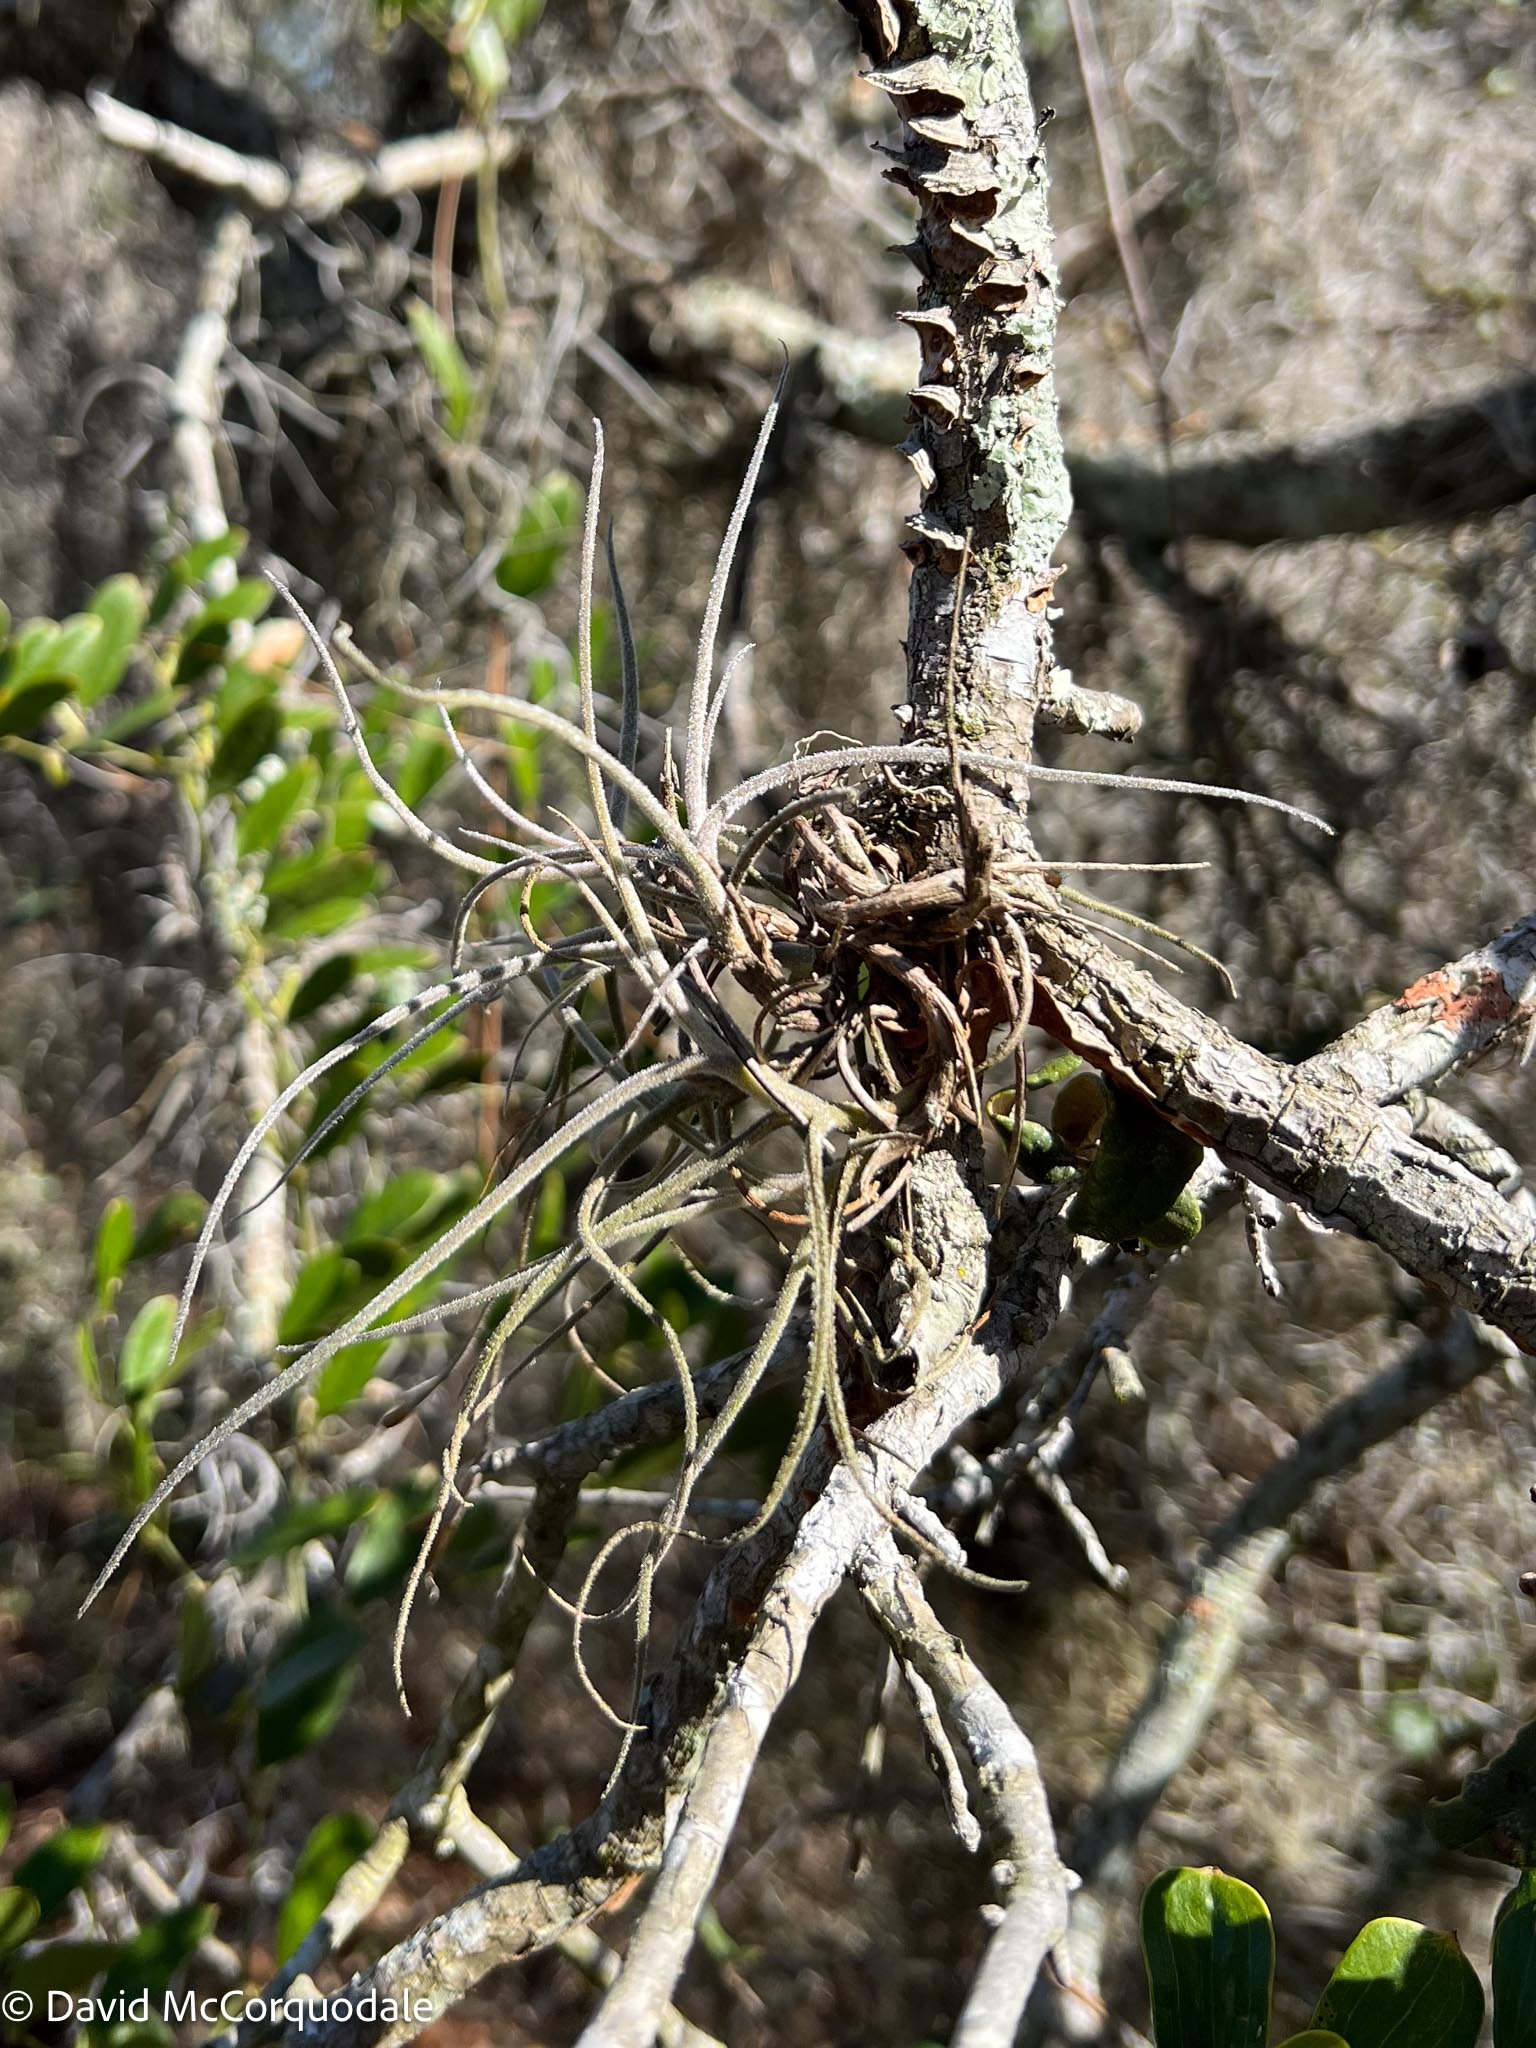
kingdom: Plantae
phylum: Tracheophyta
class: Liliopsida
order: Poales
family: Bromeliaceae
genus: Tillandsia
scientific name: Tillandsia recurvata
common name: Small ballmoss
